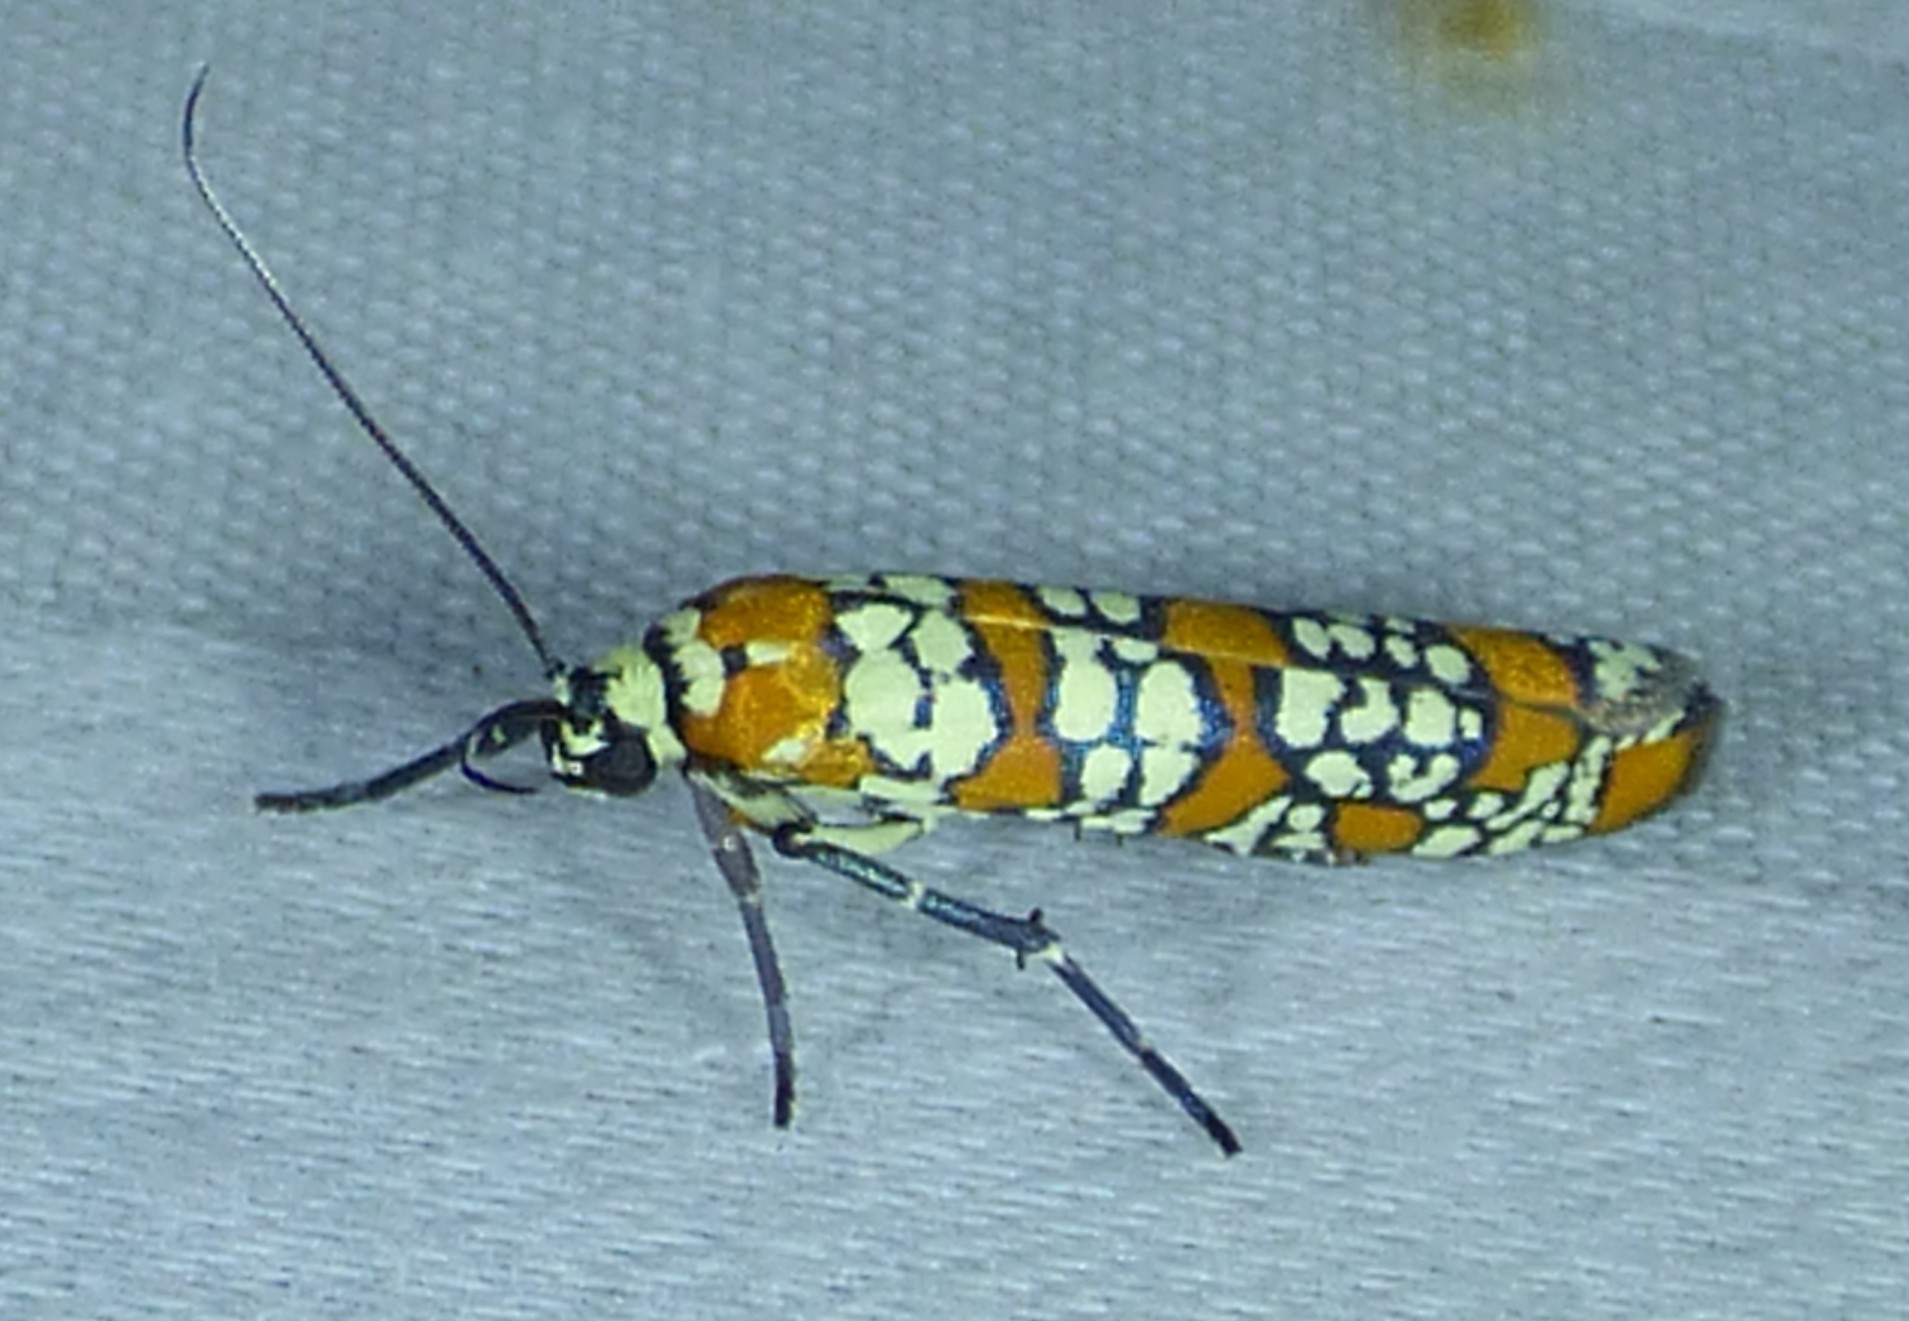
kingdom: Animalia
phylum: Arthropoda
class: Insecta
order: Lepidoptera
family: Attevidae
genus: Atteva
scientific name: Atteva punctella
